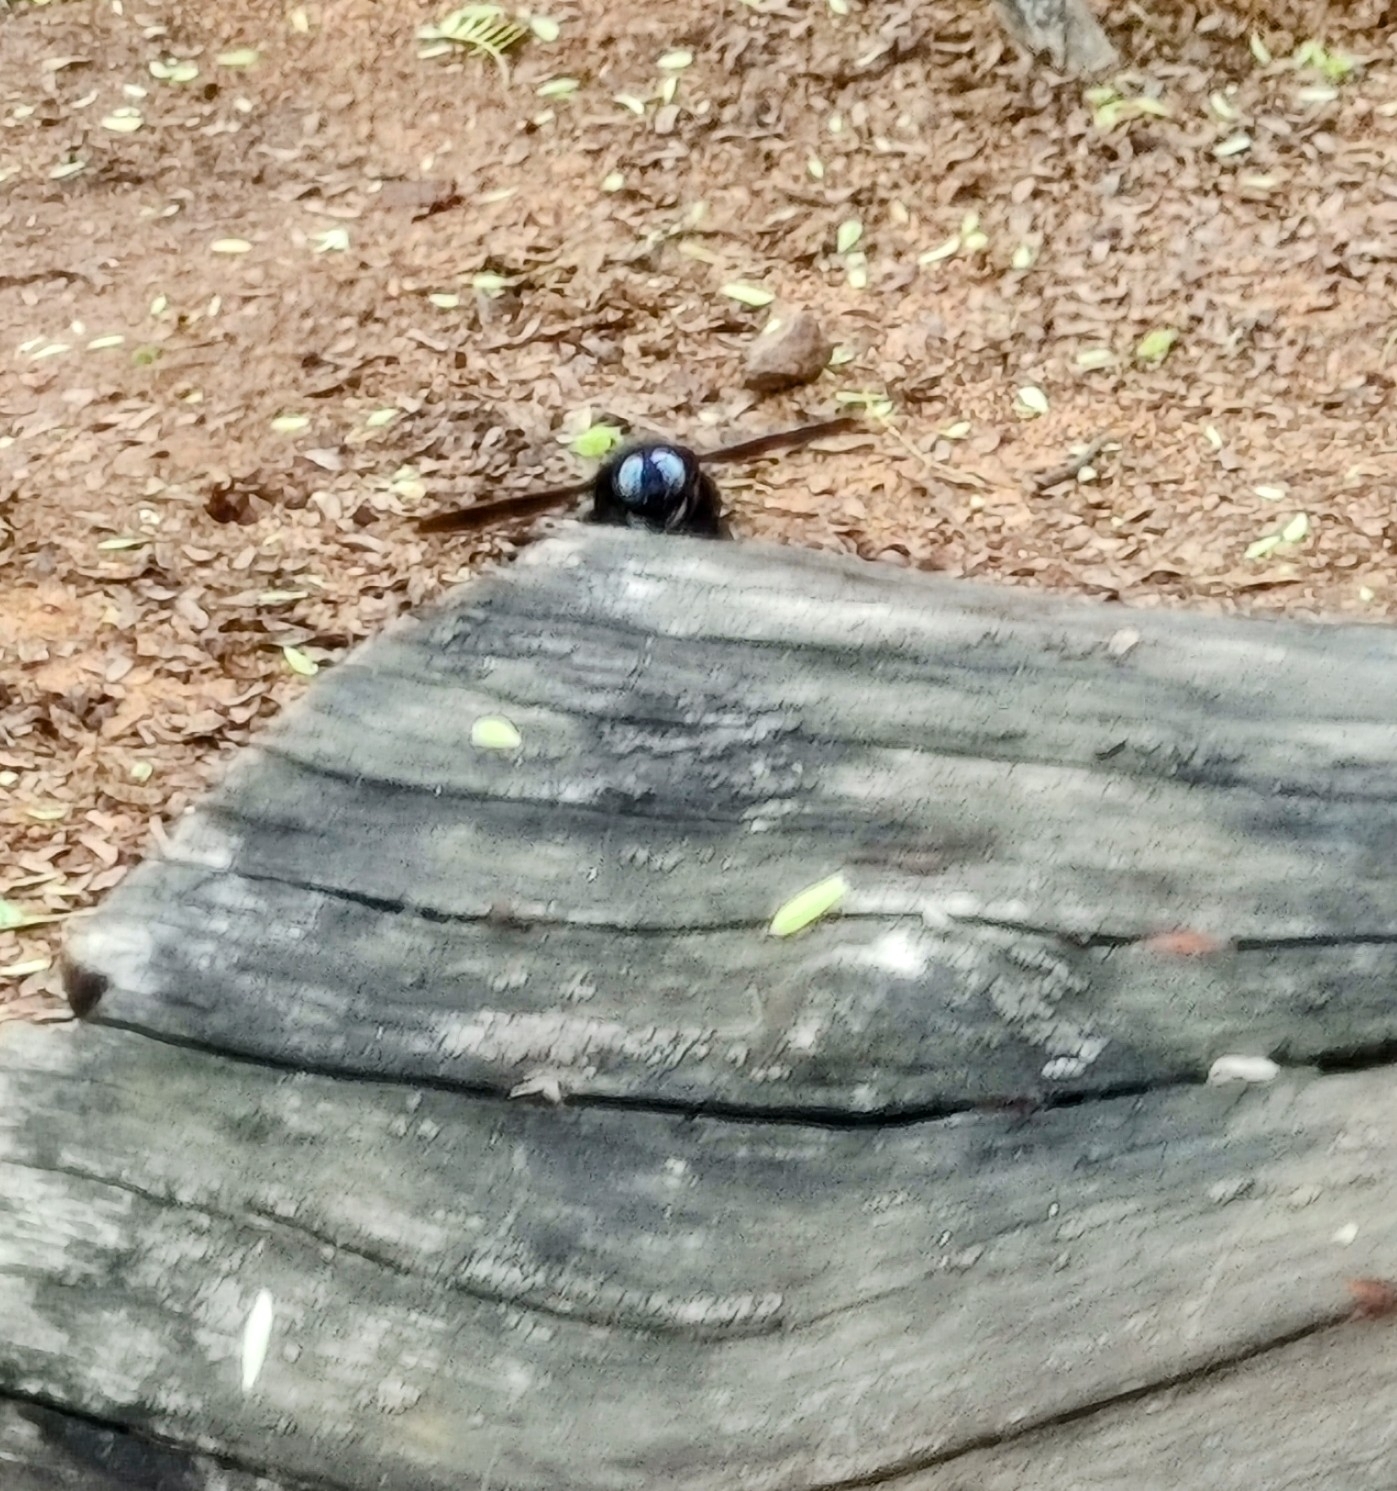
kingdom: Animalia
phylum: Arthropoda
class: Insecta
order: Hymenoptera
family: Apidae
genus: Xylocopa
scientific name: Xylocopa tenuiscapa
